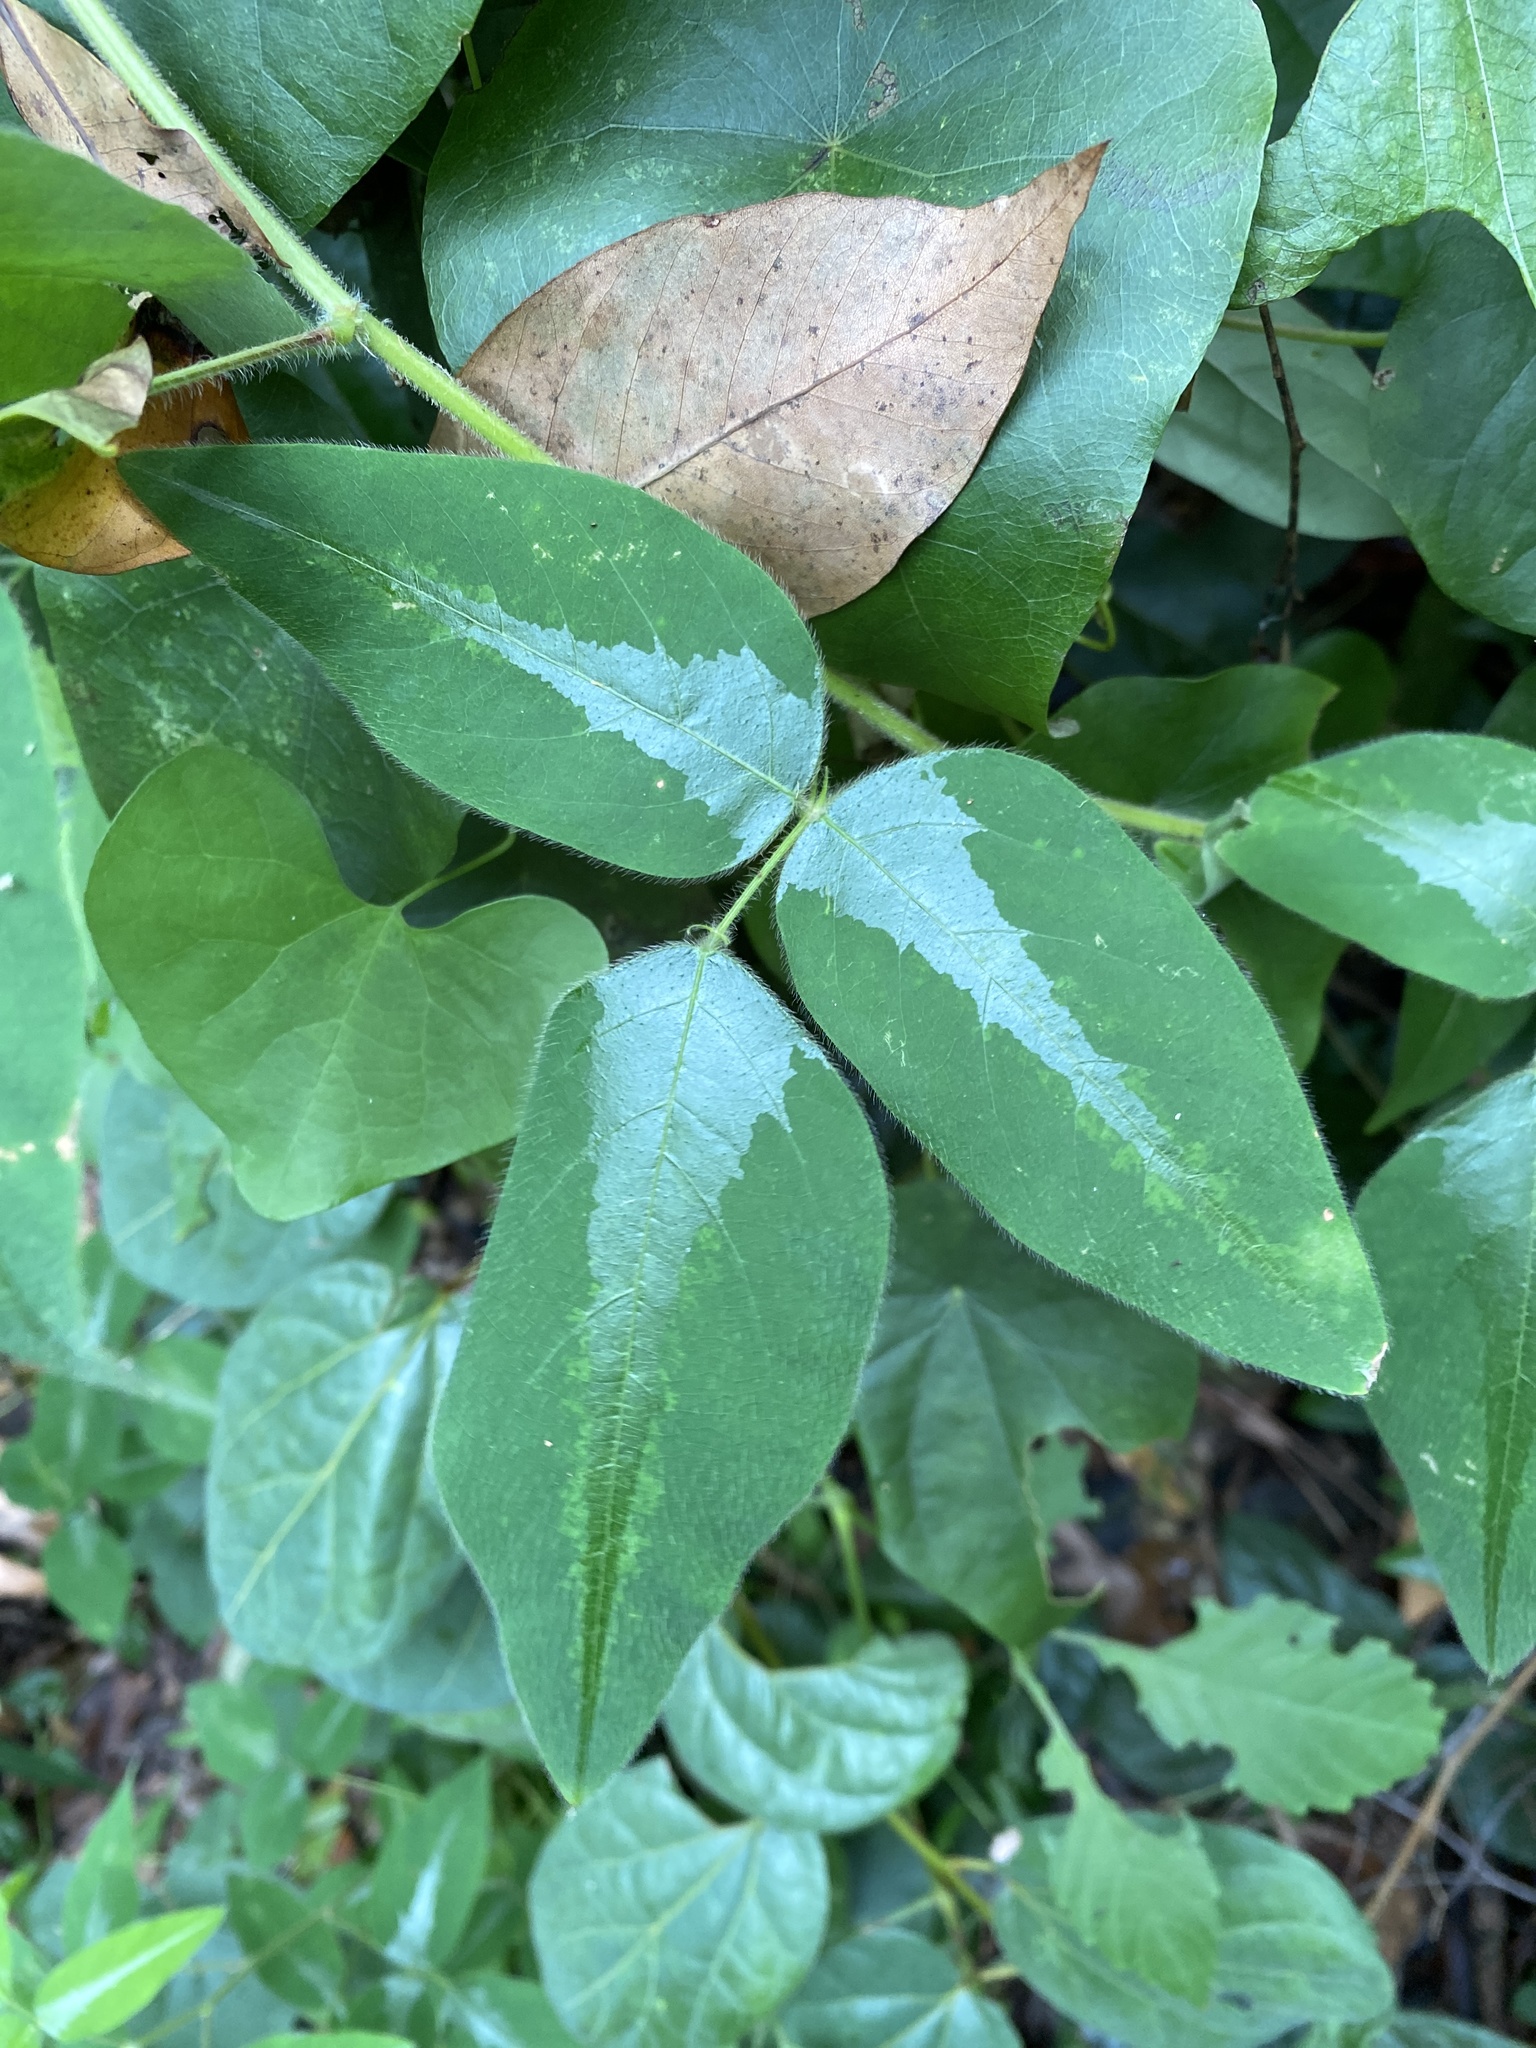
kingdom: Plantae
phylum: Tracheophyta
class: Magnoliopsida
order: Fabales
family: Fabaceae
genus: Desmodium
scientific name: Desmodium uncinatum
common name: Silverleaf desmodium
